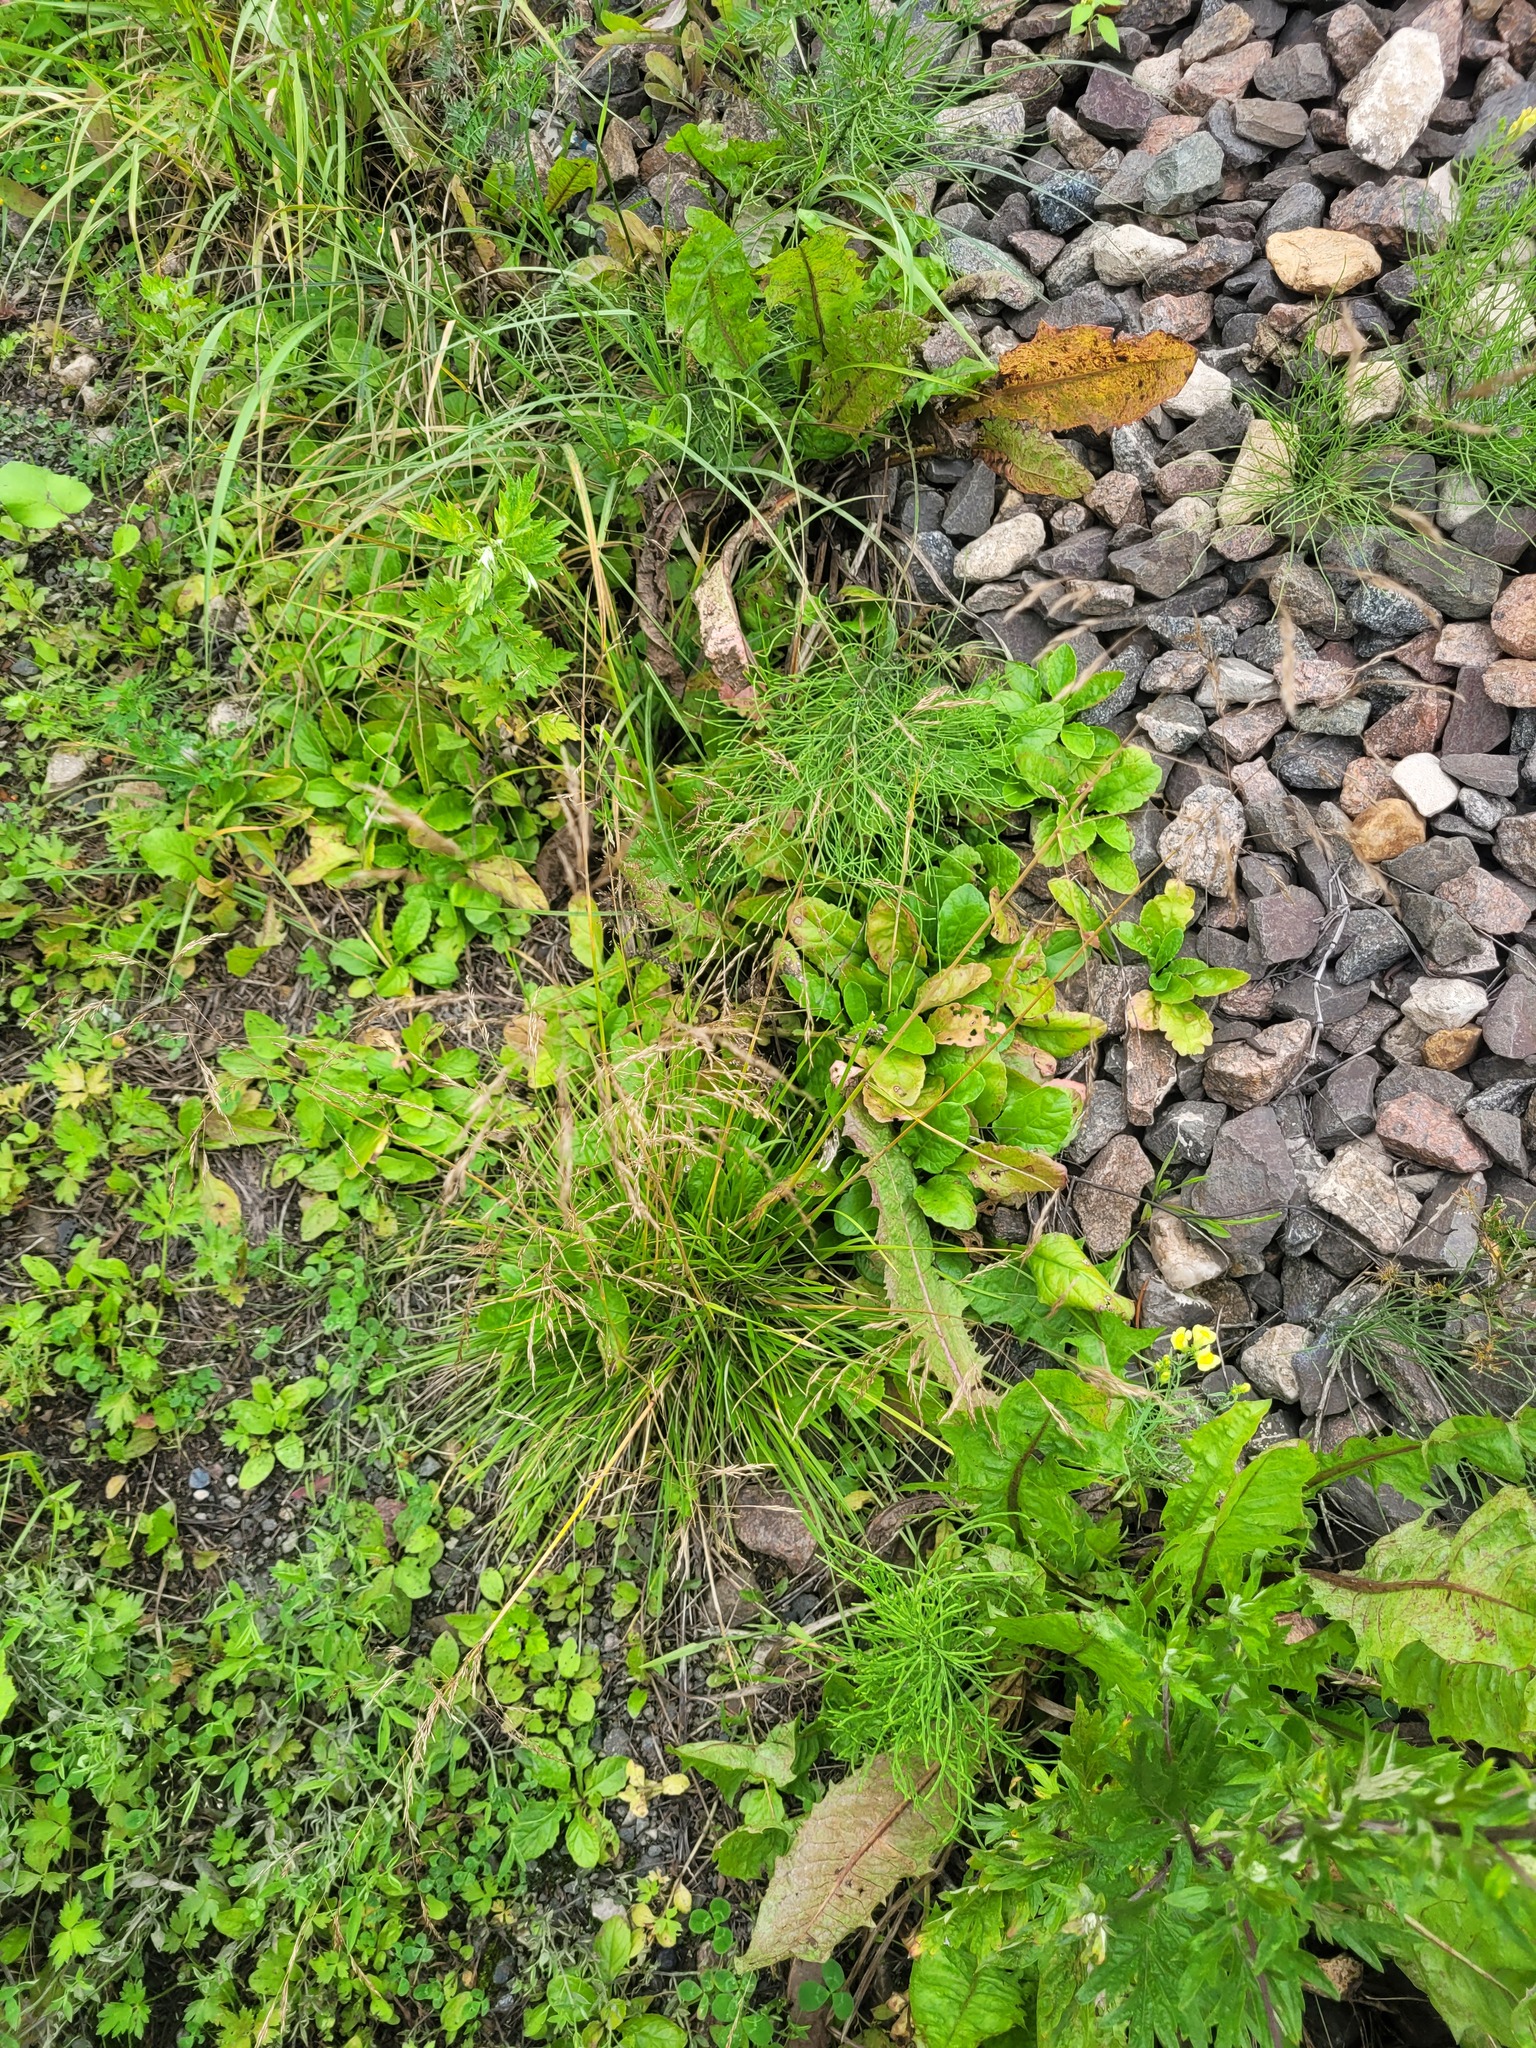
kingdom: Plantae
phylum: Tracheophyta
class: Liliopsida
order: Poales
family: Poaceae
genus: Deschampsia
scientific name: Deschampsia cespitosa
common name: Tufted hair-grass
